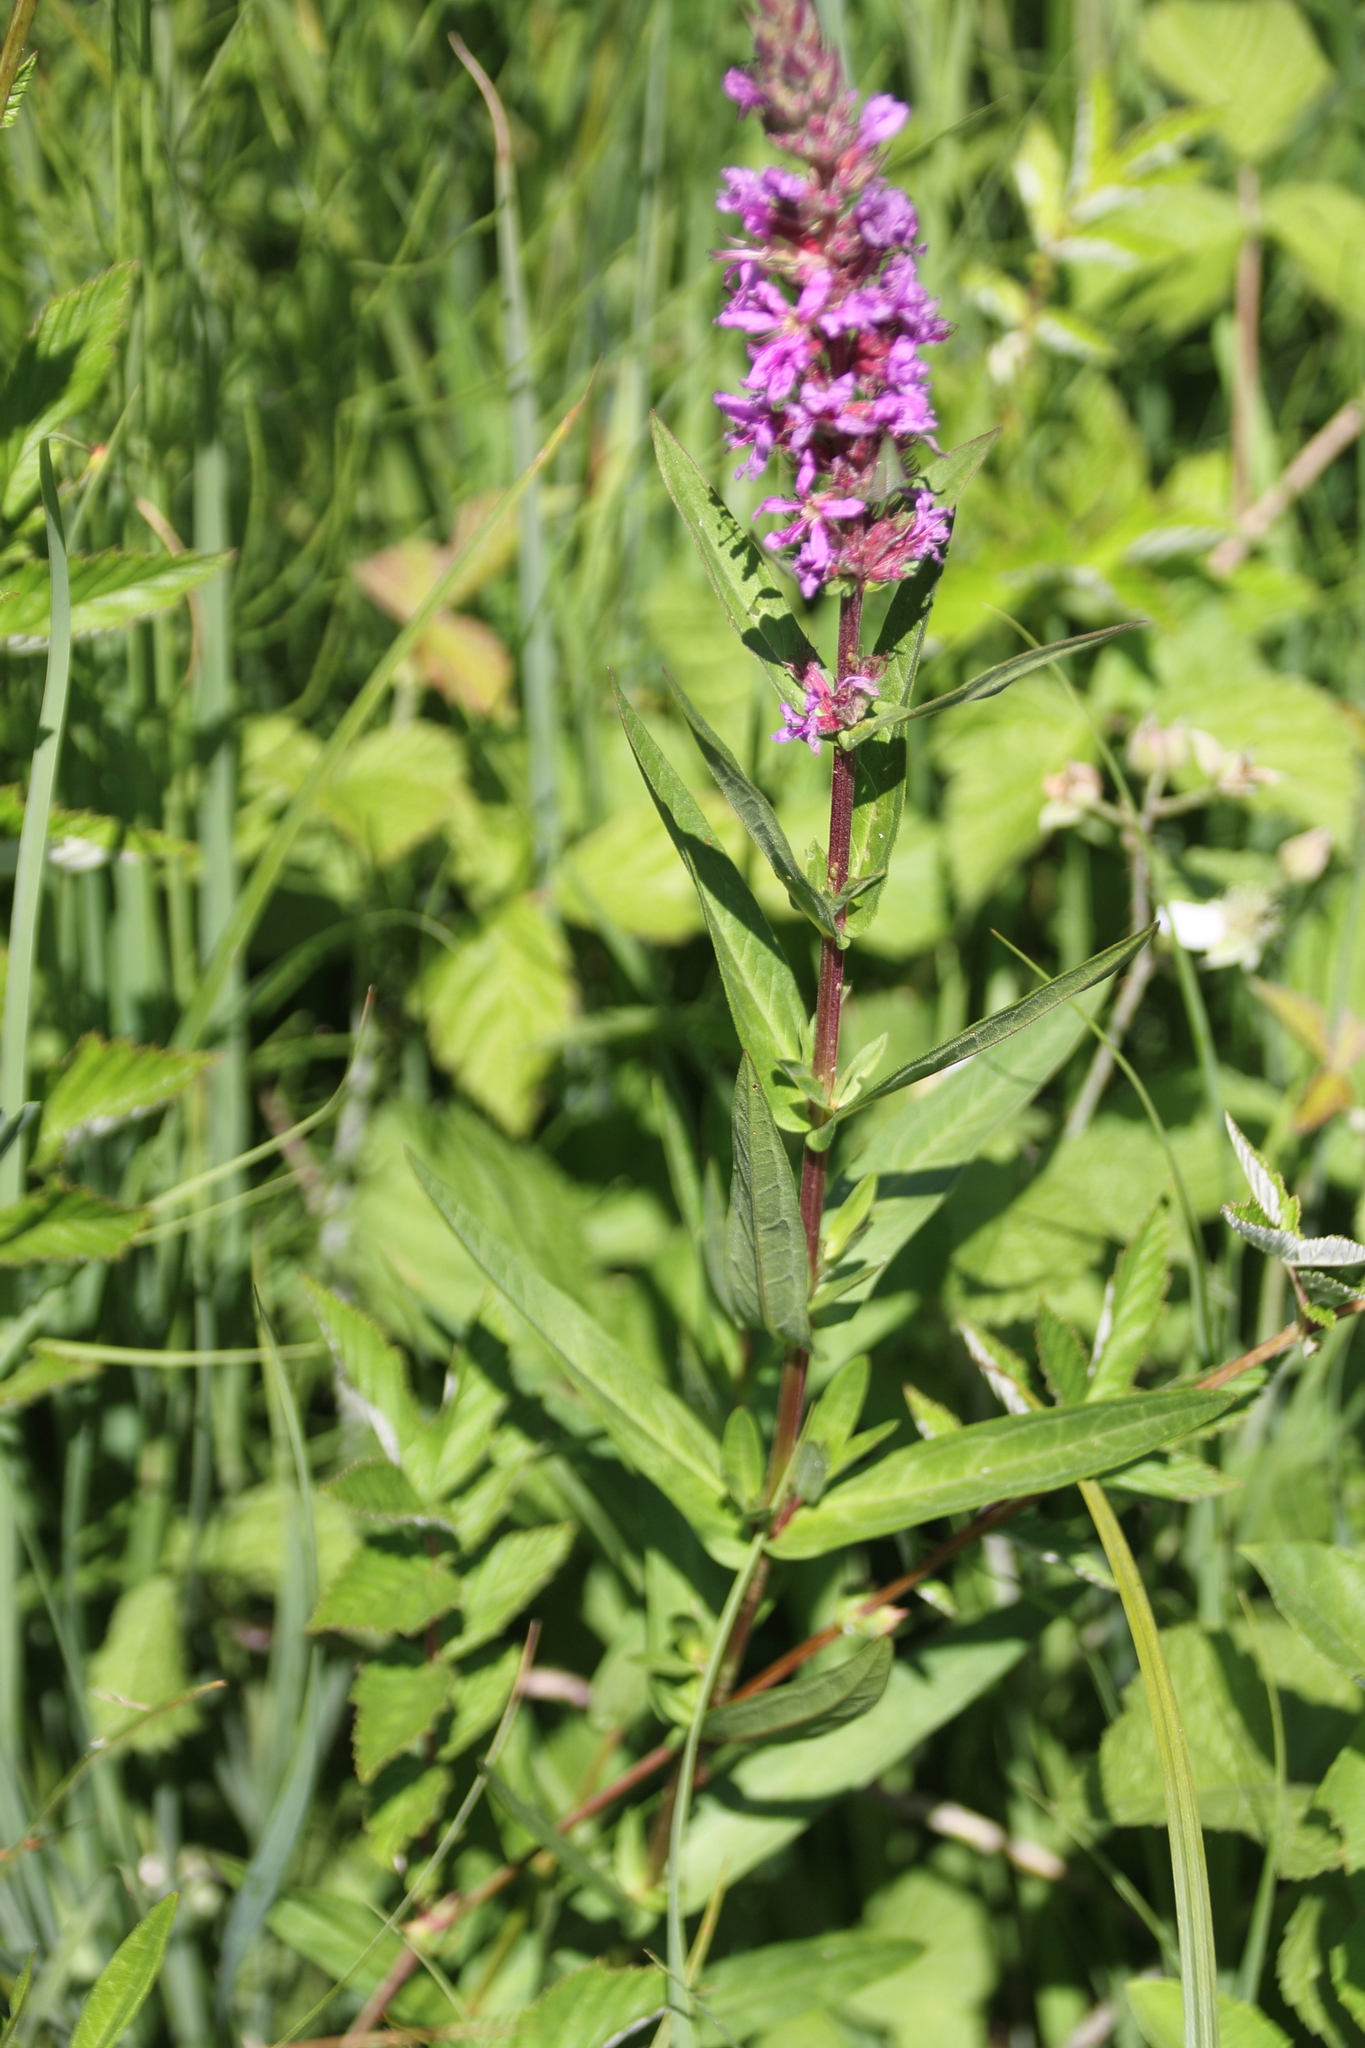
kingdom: Plantae
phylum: Tracheophyta
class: Magnoliopsida
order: Myrtales
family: Lythraceae
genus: Lythrum
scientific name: Lythrum salicaria
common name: Purple loosestrife
